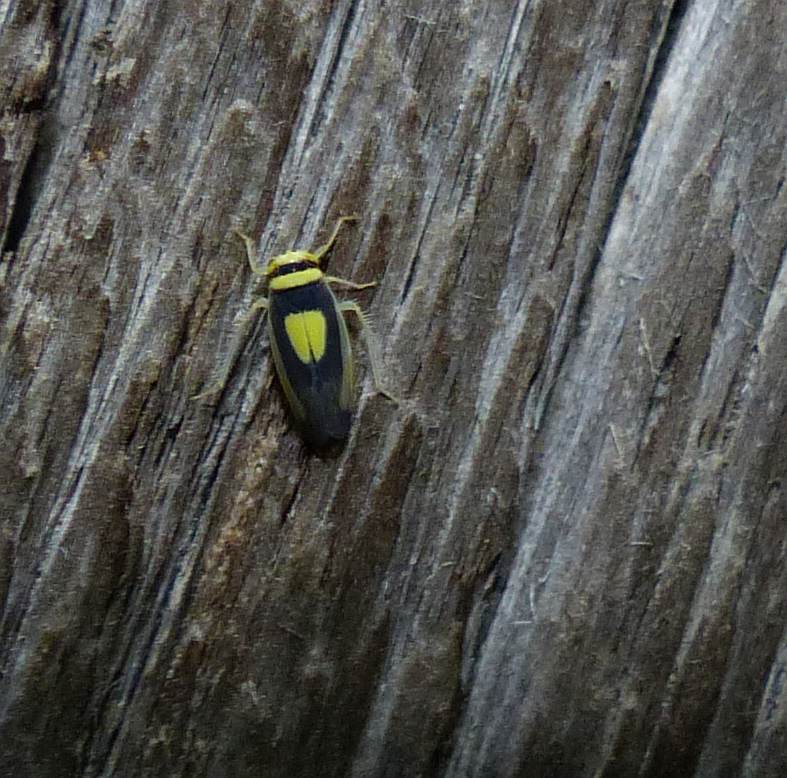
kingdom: Animalia
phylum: Arthropoda
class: Insecta
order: Hemiptera
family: Cicadellidae
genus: Colladonus
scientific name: Colladonus clitellarius
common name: The saddleback leafhopper
